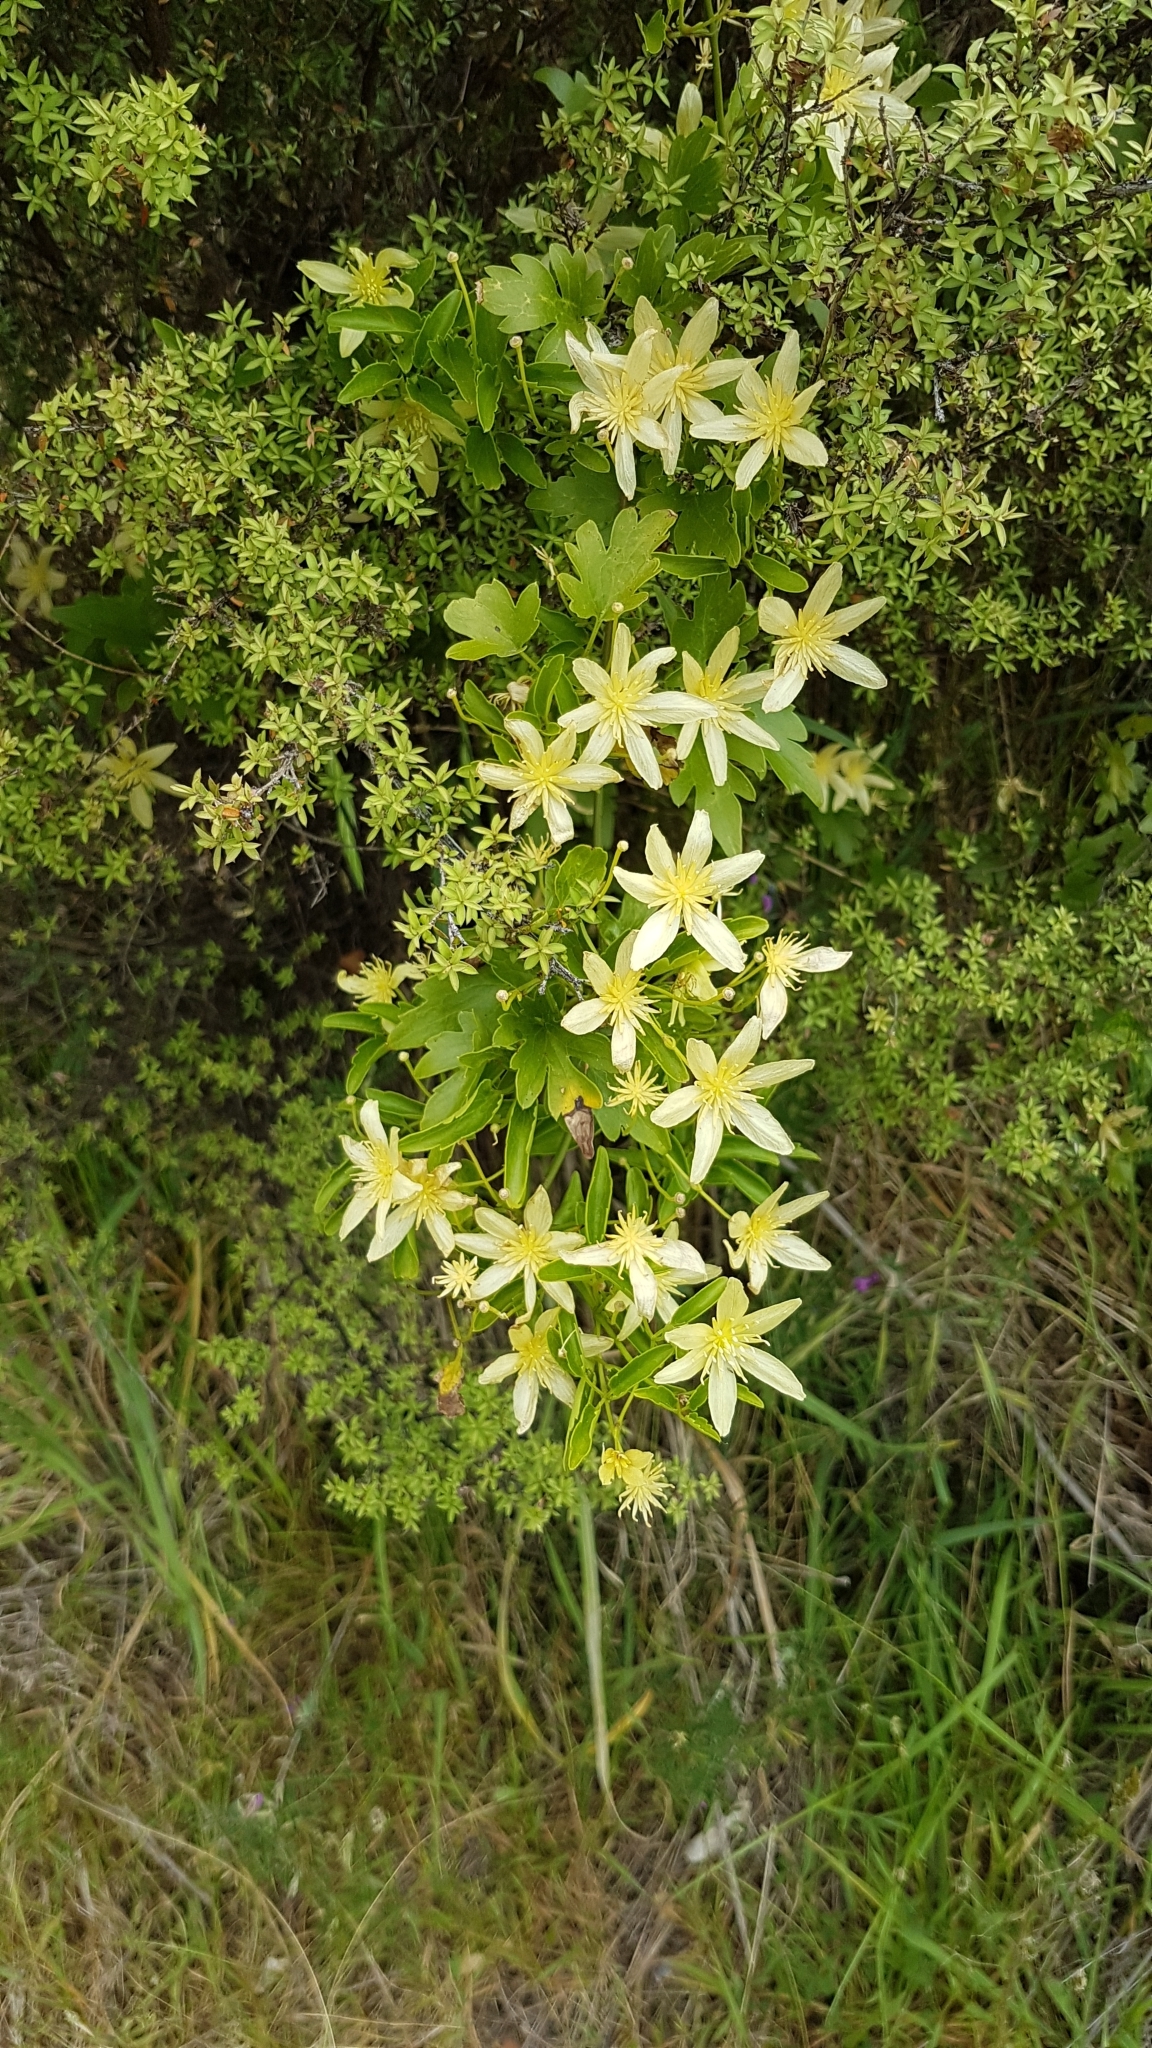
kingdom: Plantae
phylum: Tracheophyta
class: Magnoliopsida
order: Ranunculales
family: Ranunculaceae
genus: Clematis
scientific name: Clematis forsteri
